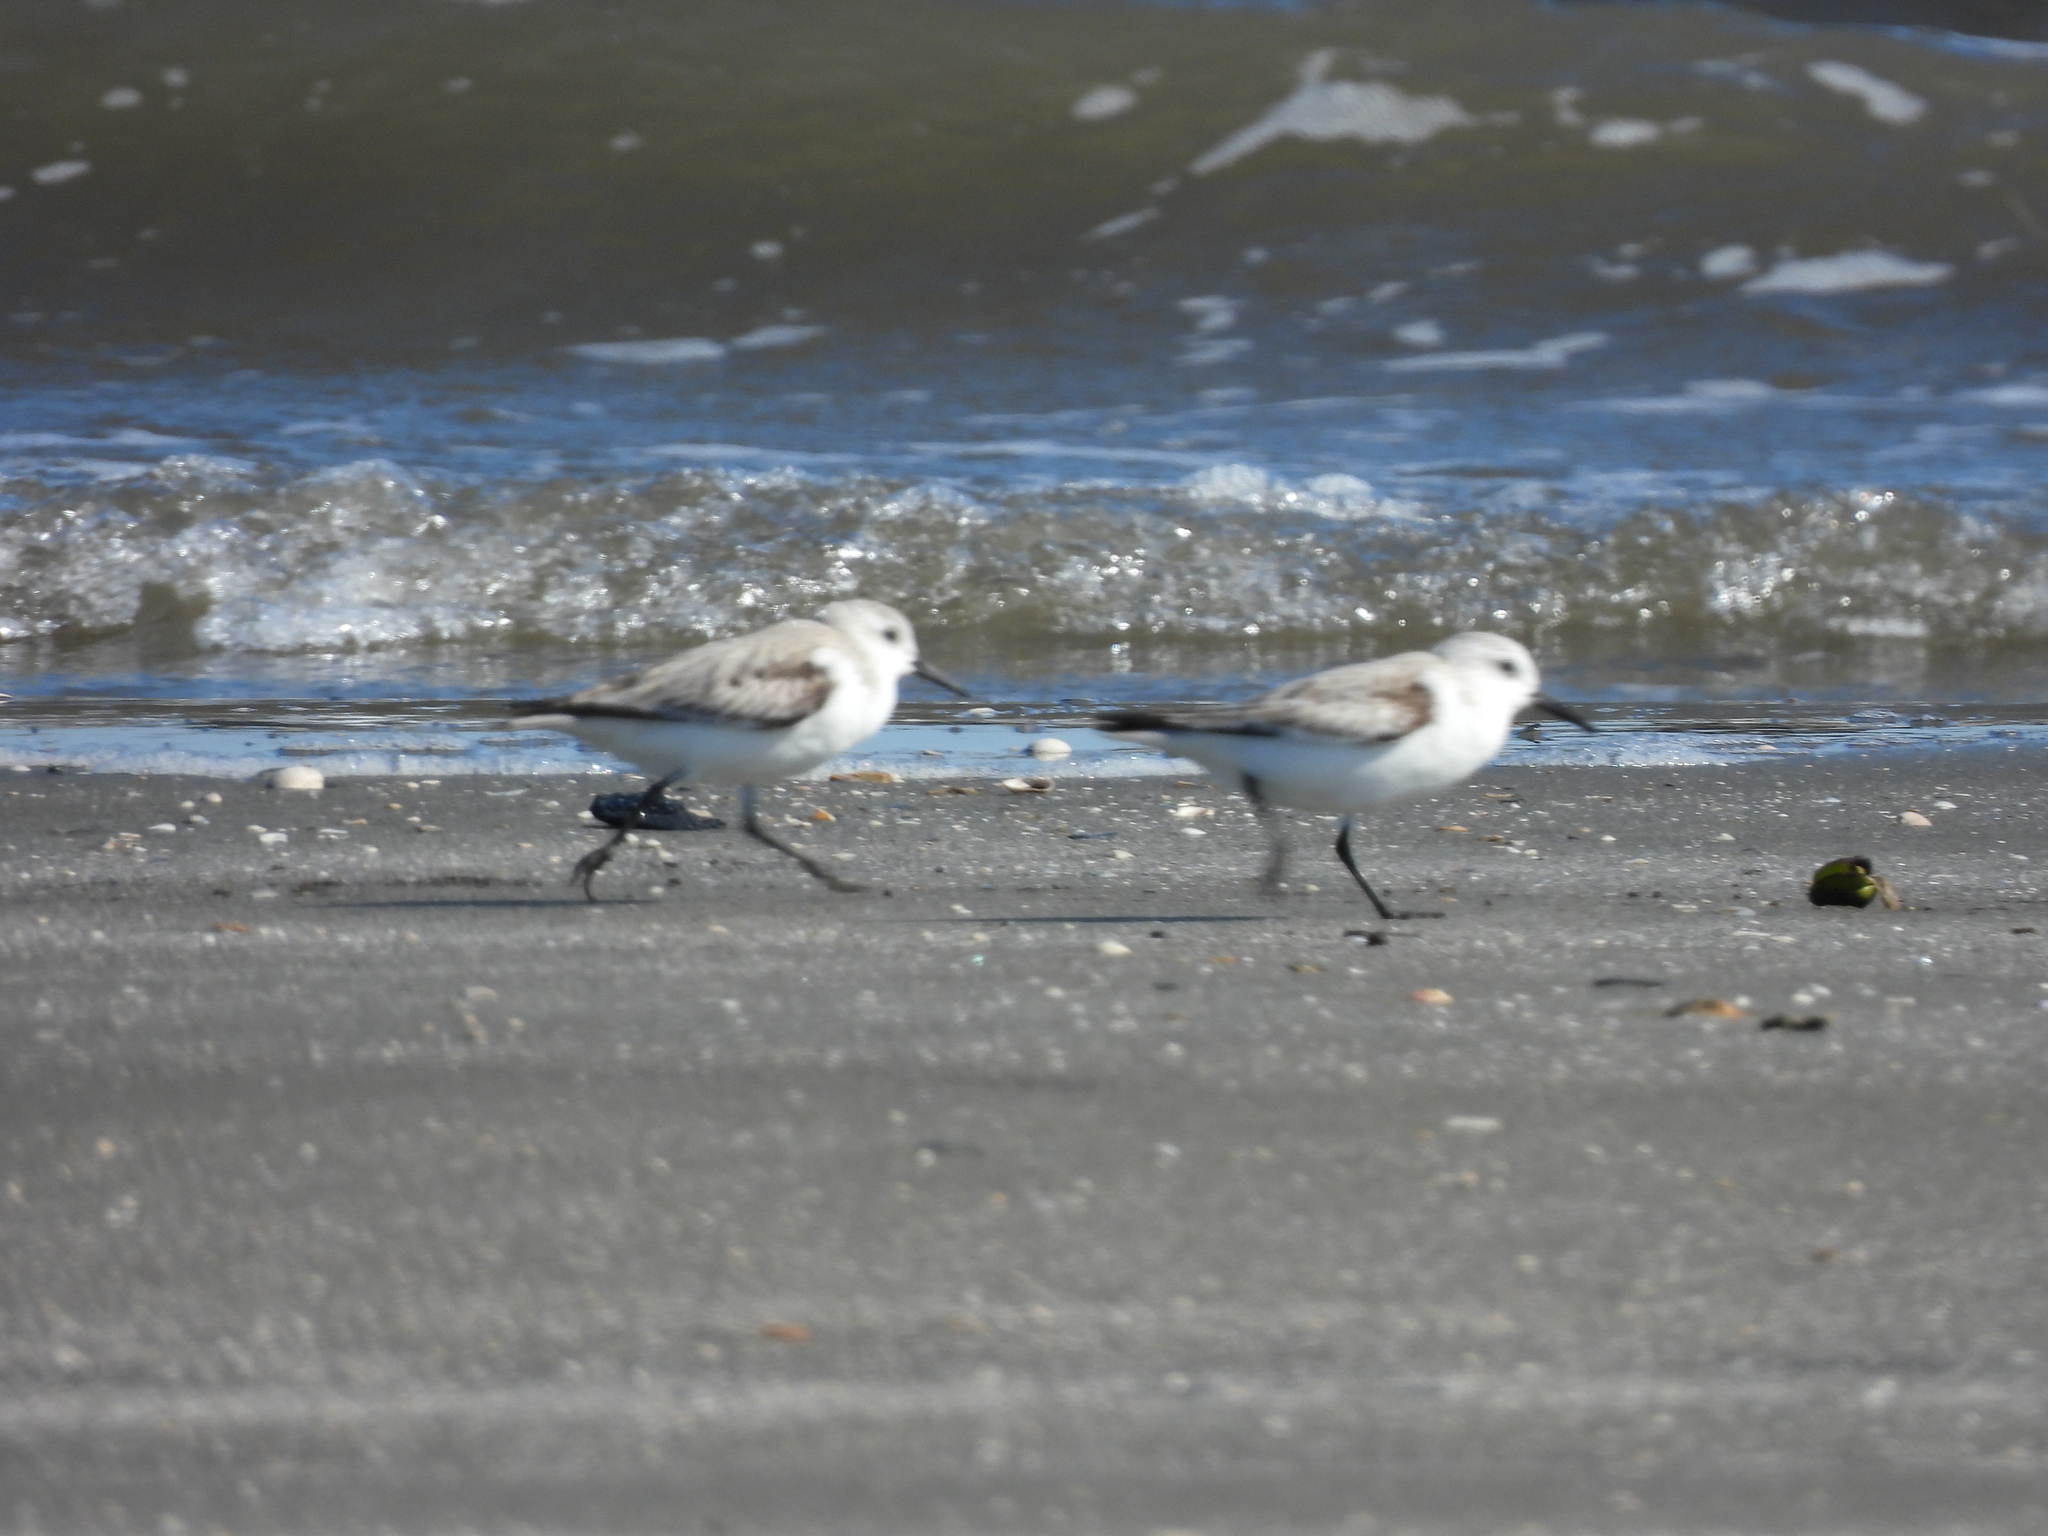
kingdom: Animalia
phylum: Chordata
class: Aves
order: Charadriiformes
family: Scolopacidae
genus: Calidris
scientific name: Calidris alba
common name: Sanderling
